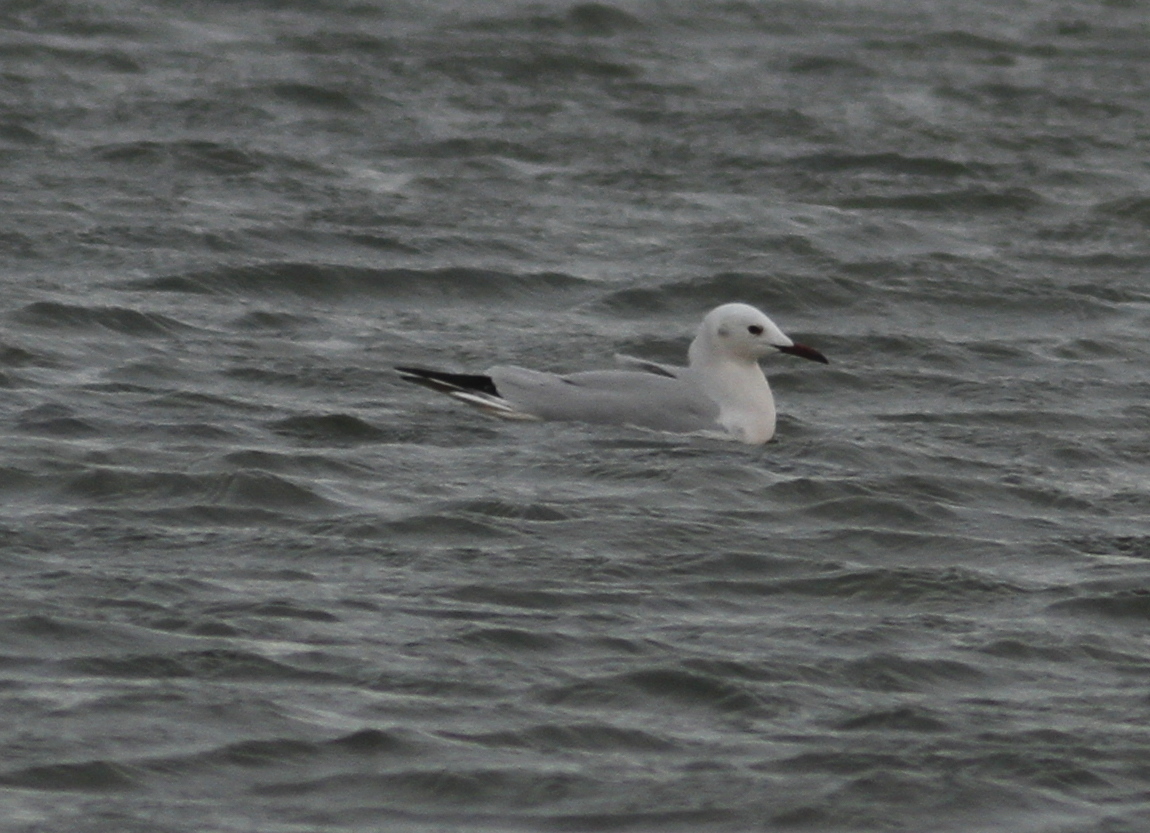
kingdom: Animalia
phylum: Chordata
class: Aves
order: Charadriiformes
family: Laridae
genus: Chroicocephalus
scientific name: Chroicocephalus genei
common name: Slender-billed gull
